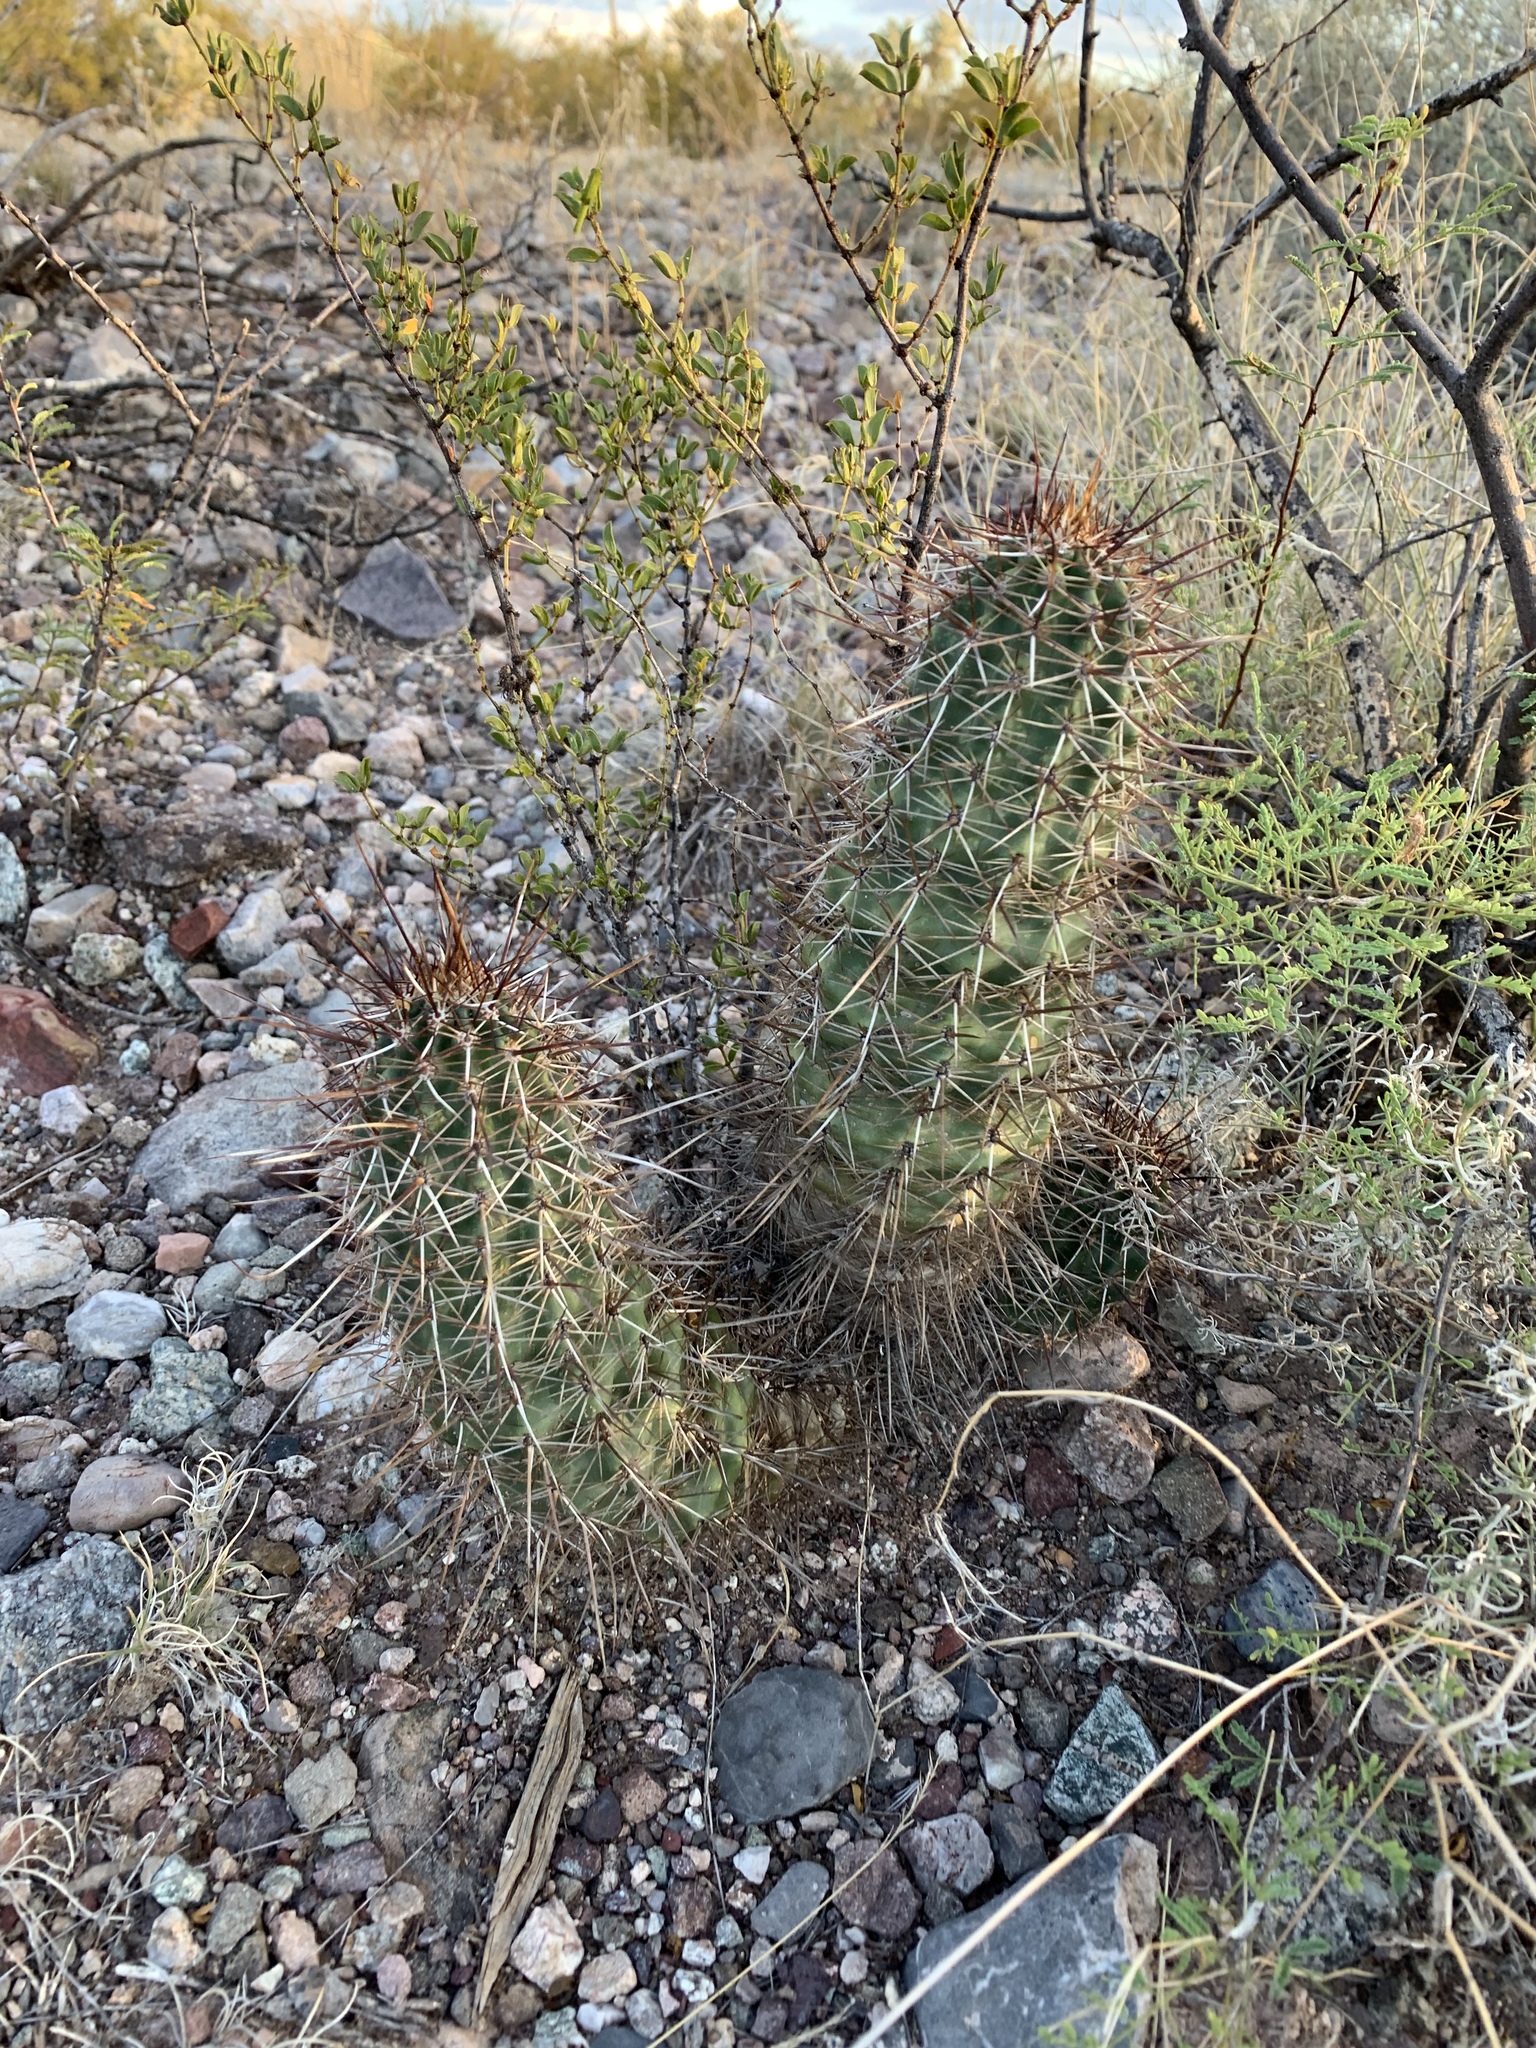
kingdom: Plantae
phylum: Tracheophyta
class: Magnoliopsida
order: Caryophyllales
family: Cactaceae
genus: Echinocereus
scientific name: Echinocereus fasciculatus
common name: Bundle hedgehog
